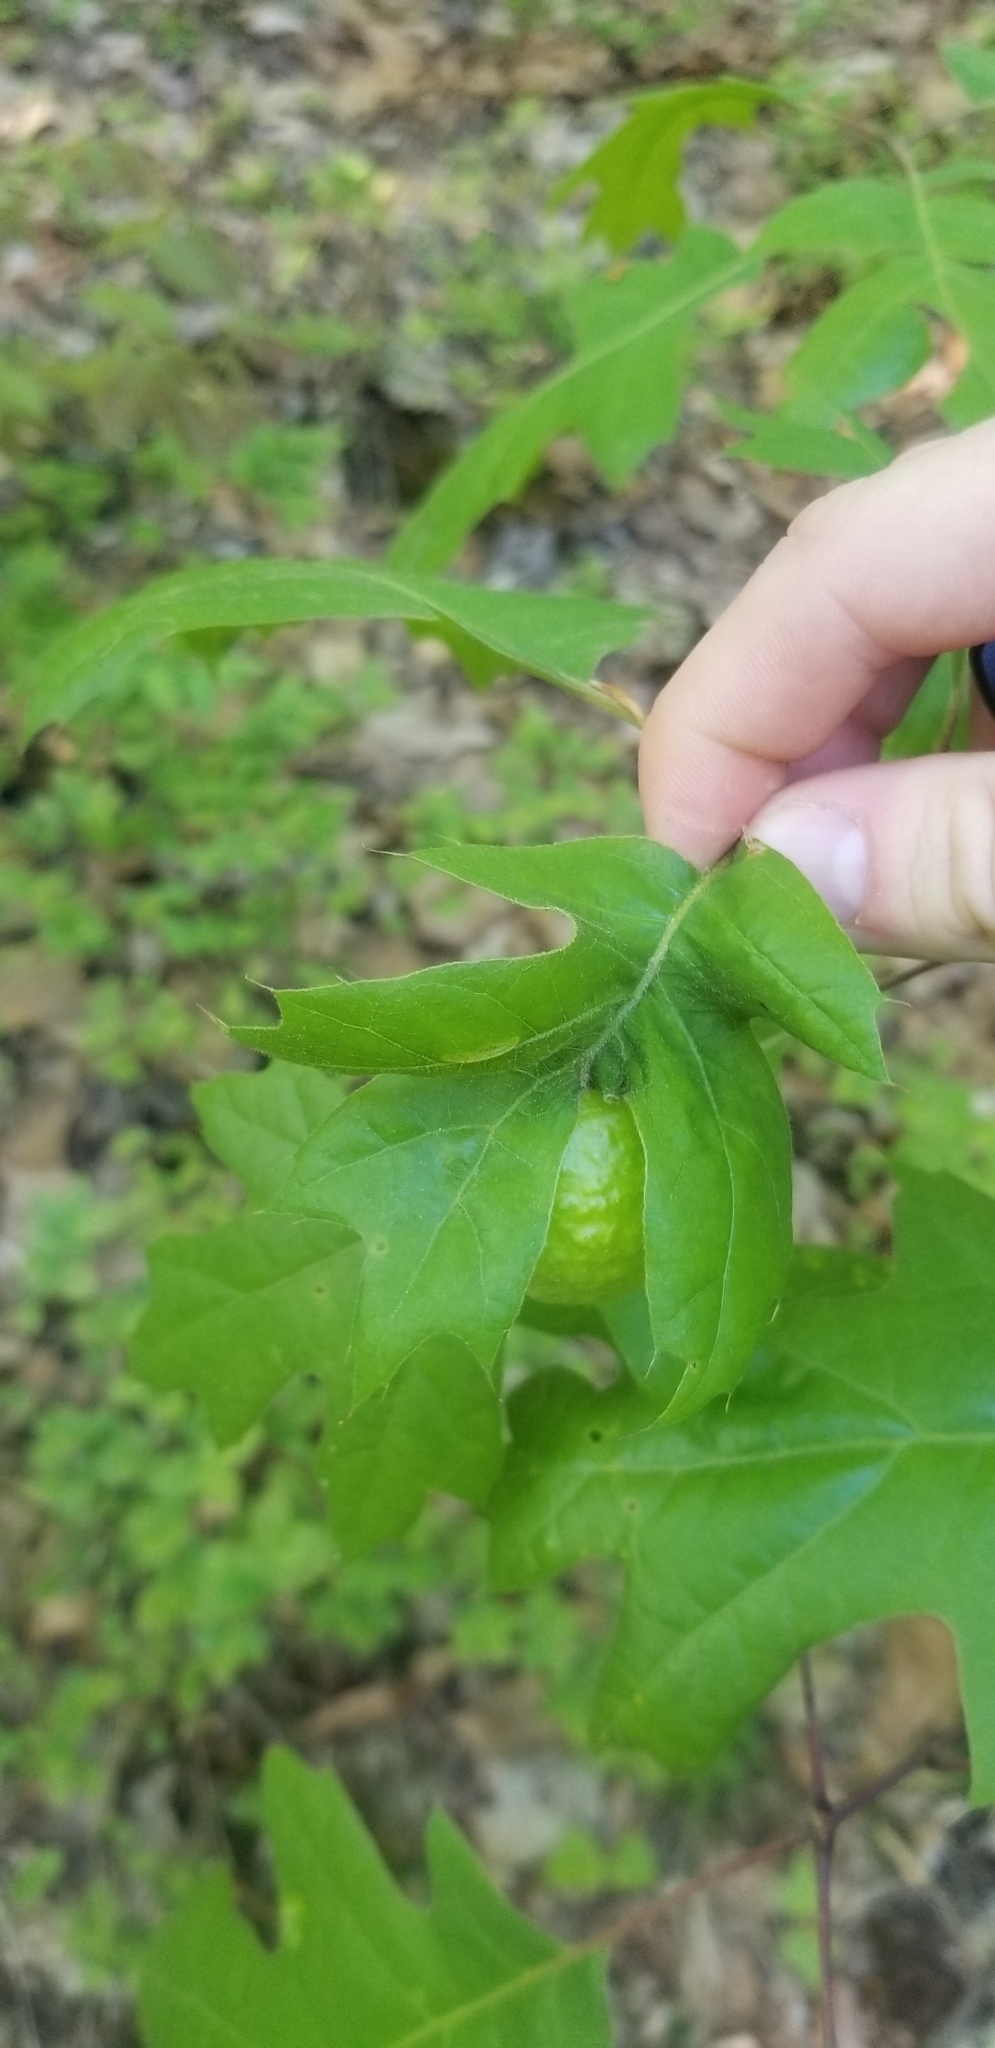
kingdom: Animalia
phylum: Arthropoda
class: Insecta
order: Hymenoptera
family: Cynipidae
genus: Amphibolips
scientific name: Amphibolips
